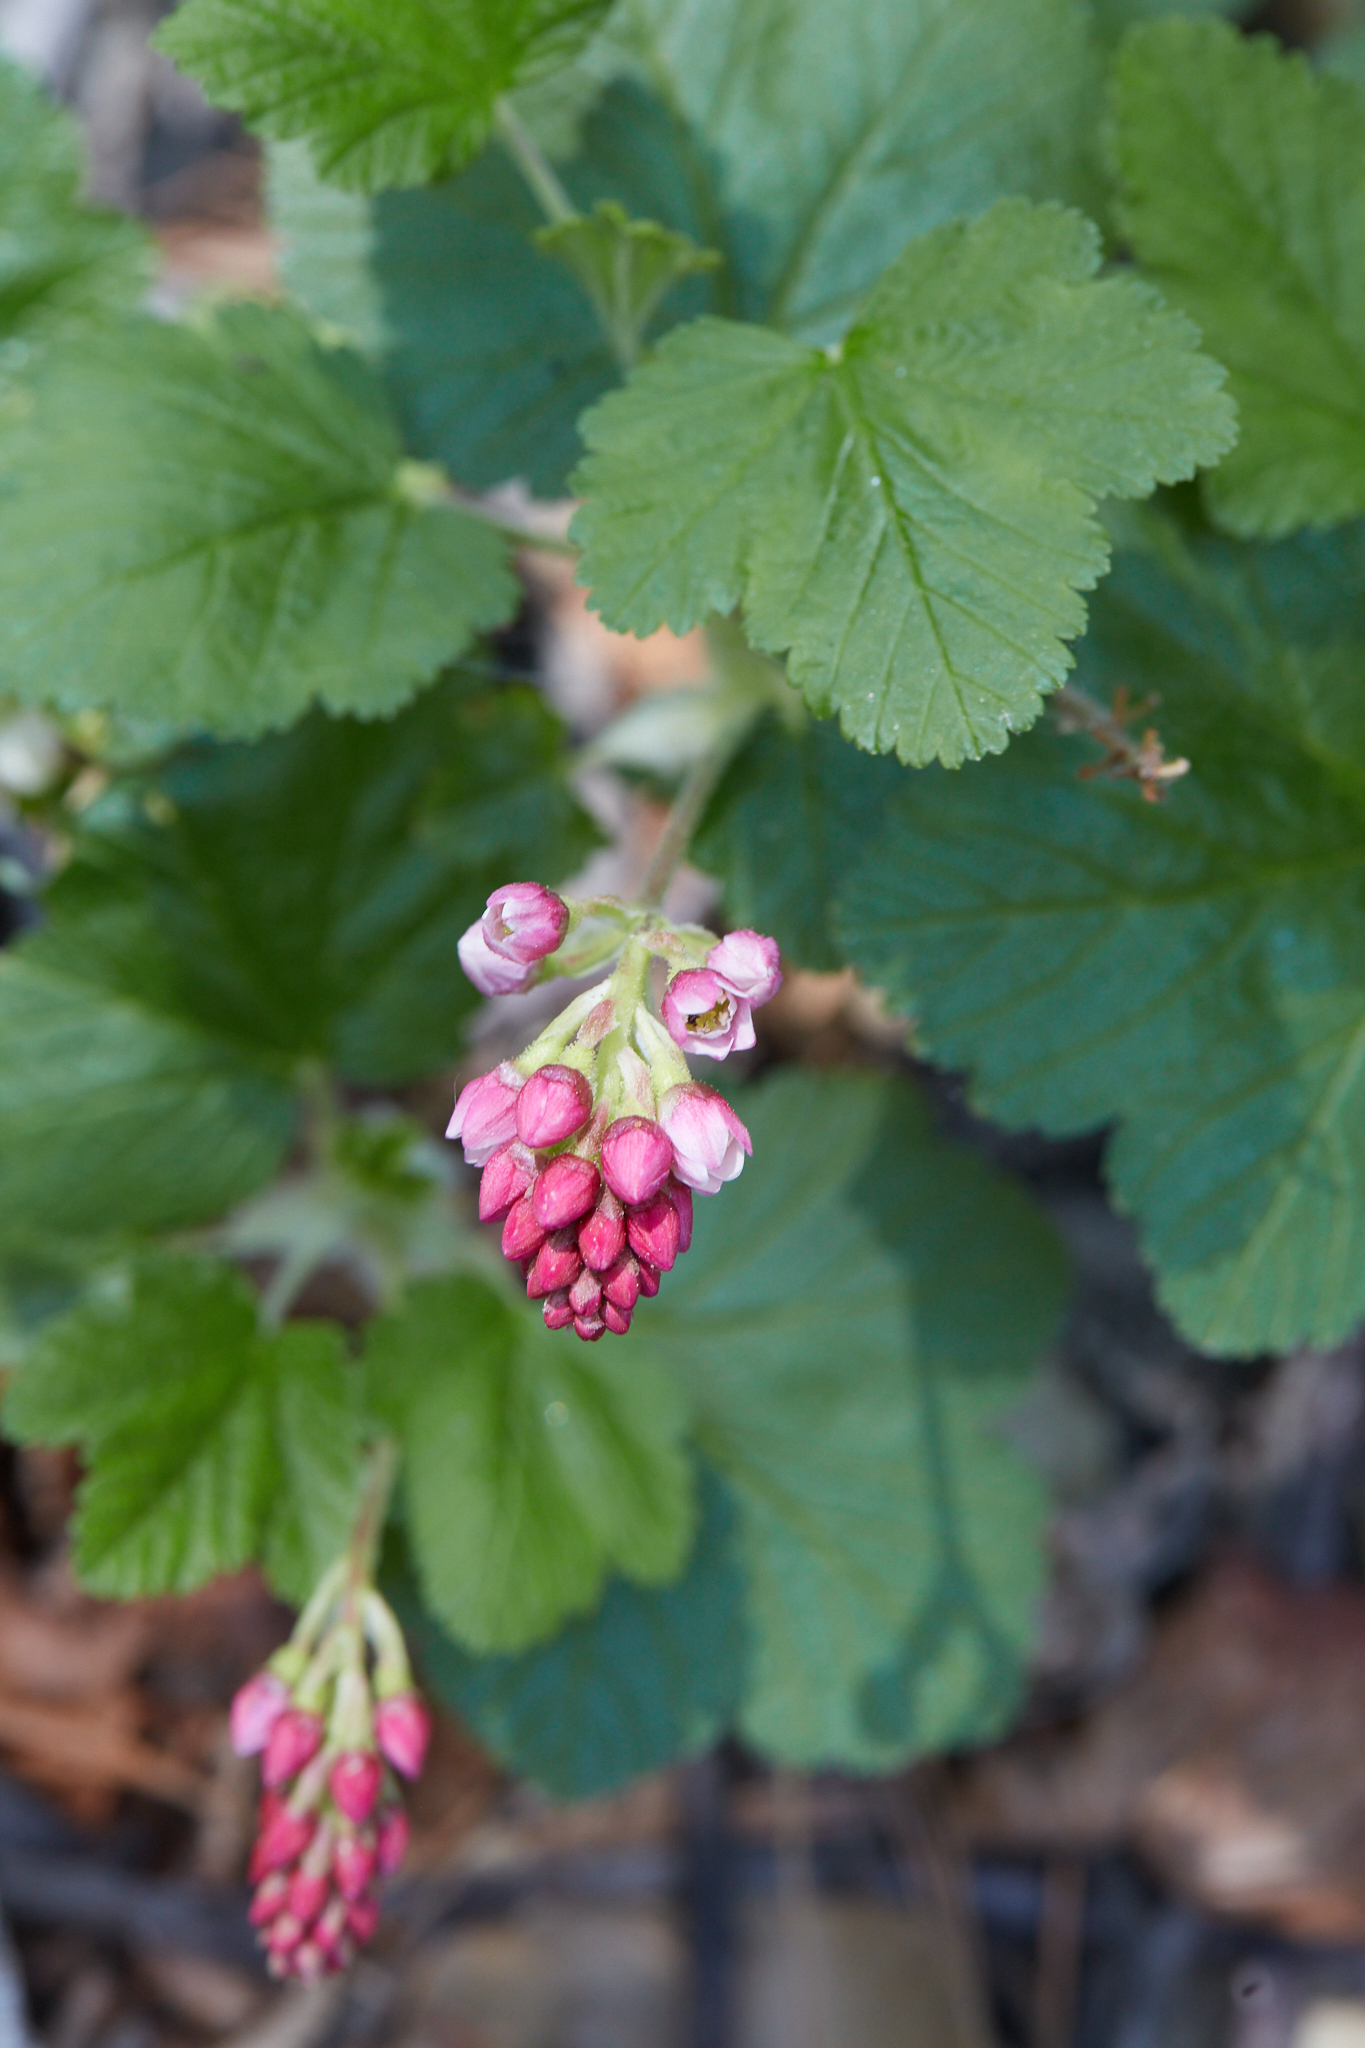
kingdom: Plantae
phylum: Tracheophyta
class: Magnoliopsida
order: Saxifragales
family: Grossulariaceae
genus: Ribes
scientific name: Ribes nevadense
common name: Mountain pink currant
